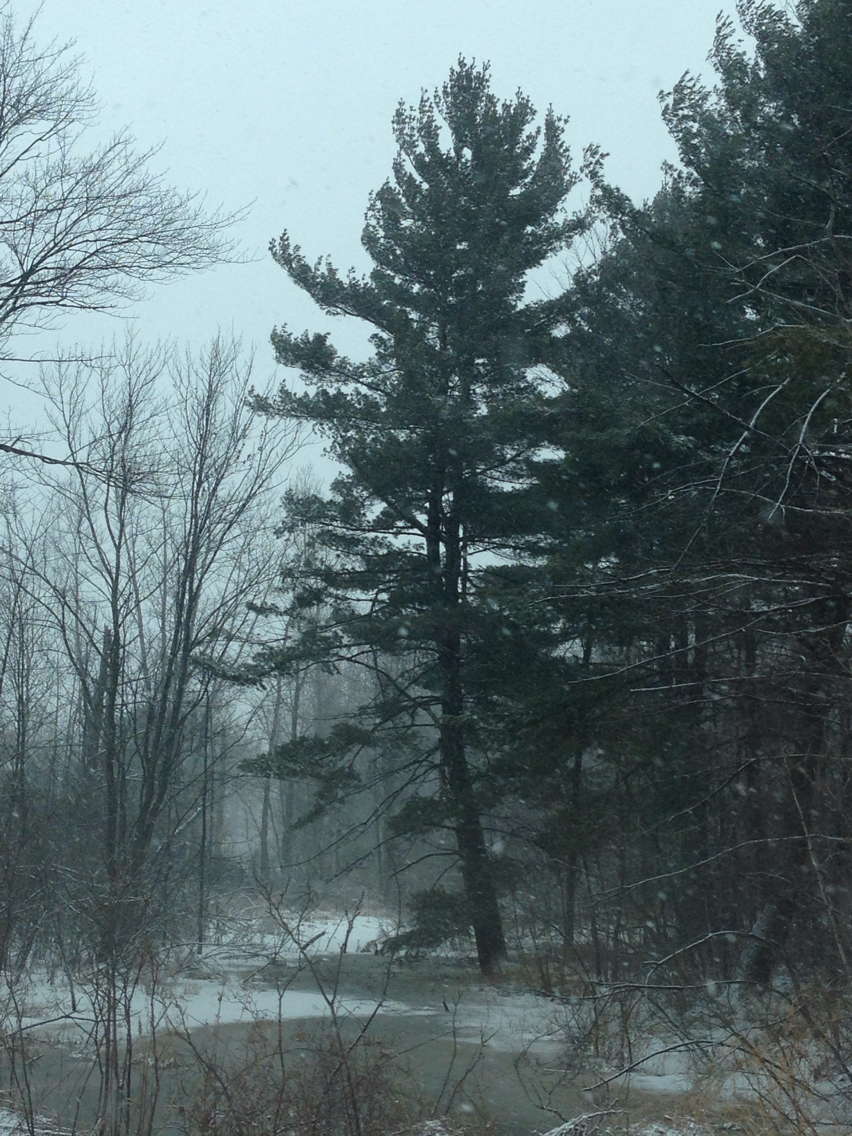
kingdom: Plantae
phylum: Tracheophyta
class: Pinopsida
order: Pinales
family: Pinaceae
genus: Pinus
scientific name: Pinus strobus
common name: Weymouth pine
